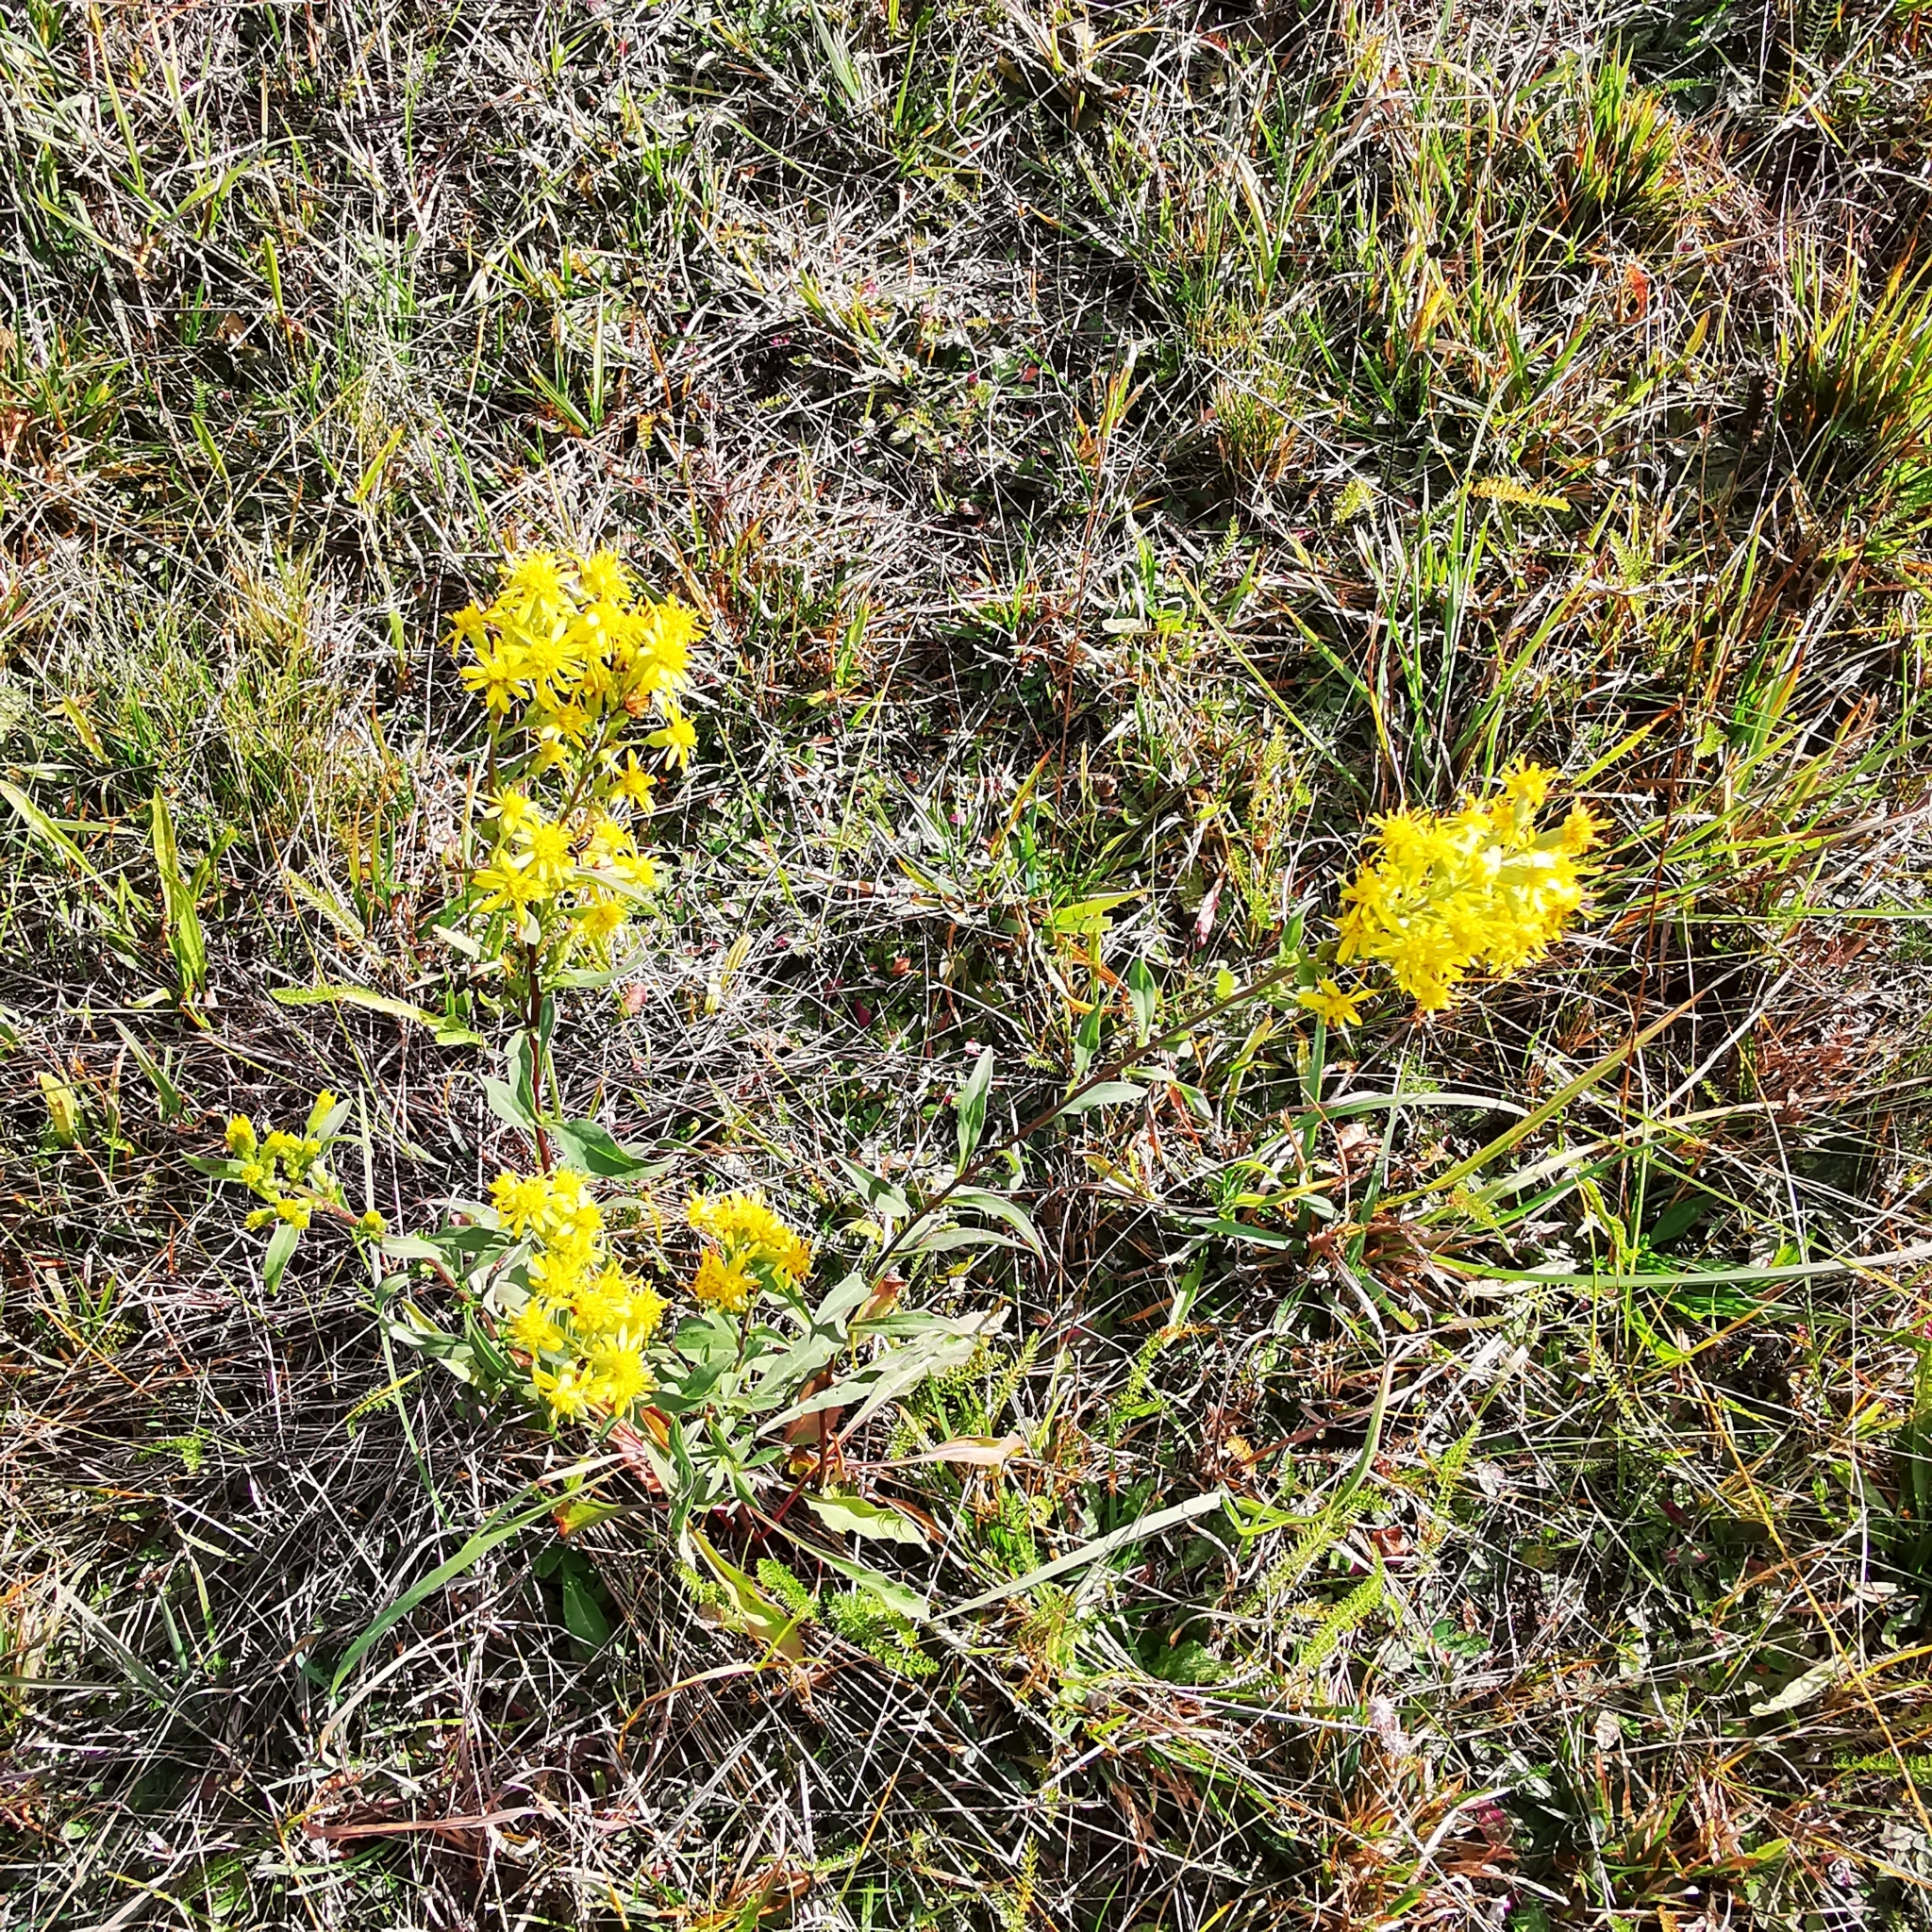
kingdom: Plantae
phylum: Tracheophyta
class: Magnoliopsida
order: Asterales
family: Asteraceae
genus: Solidago
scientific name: Solidago virgaurea
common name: Goldenrod
